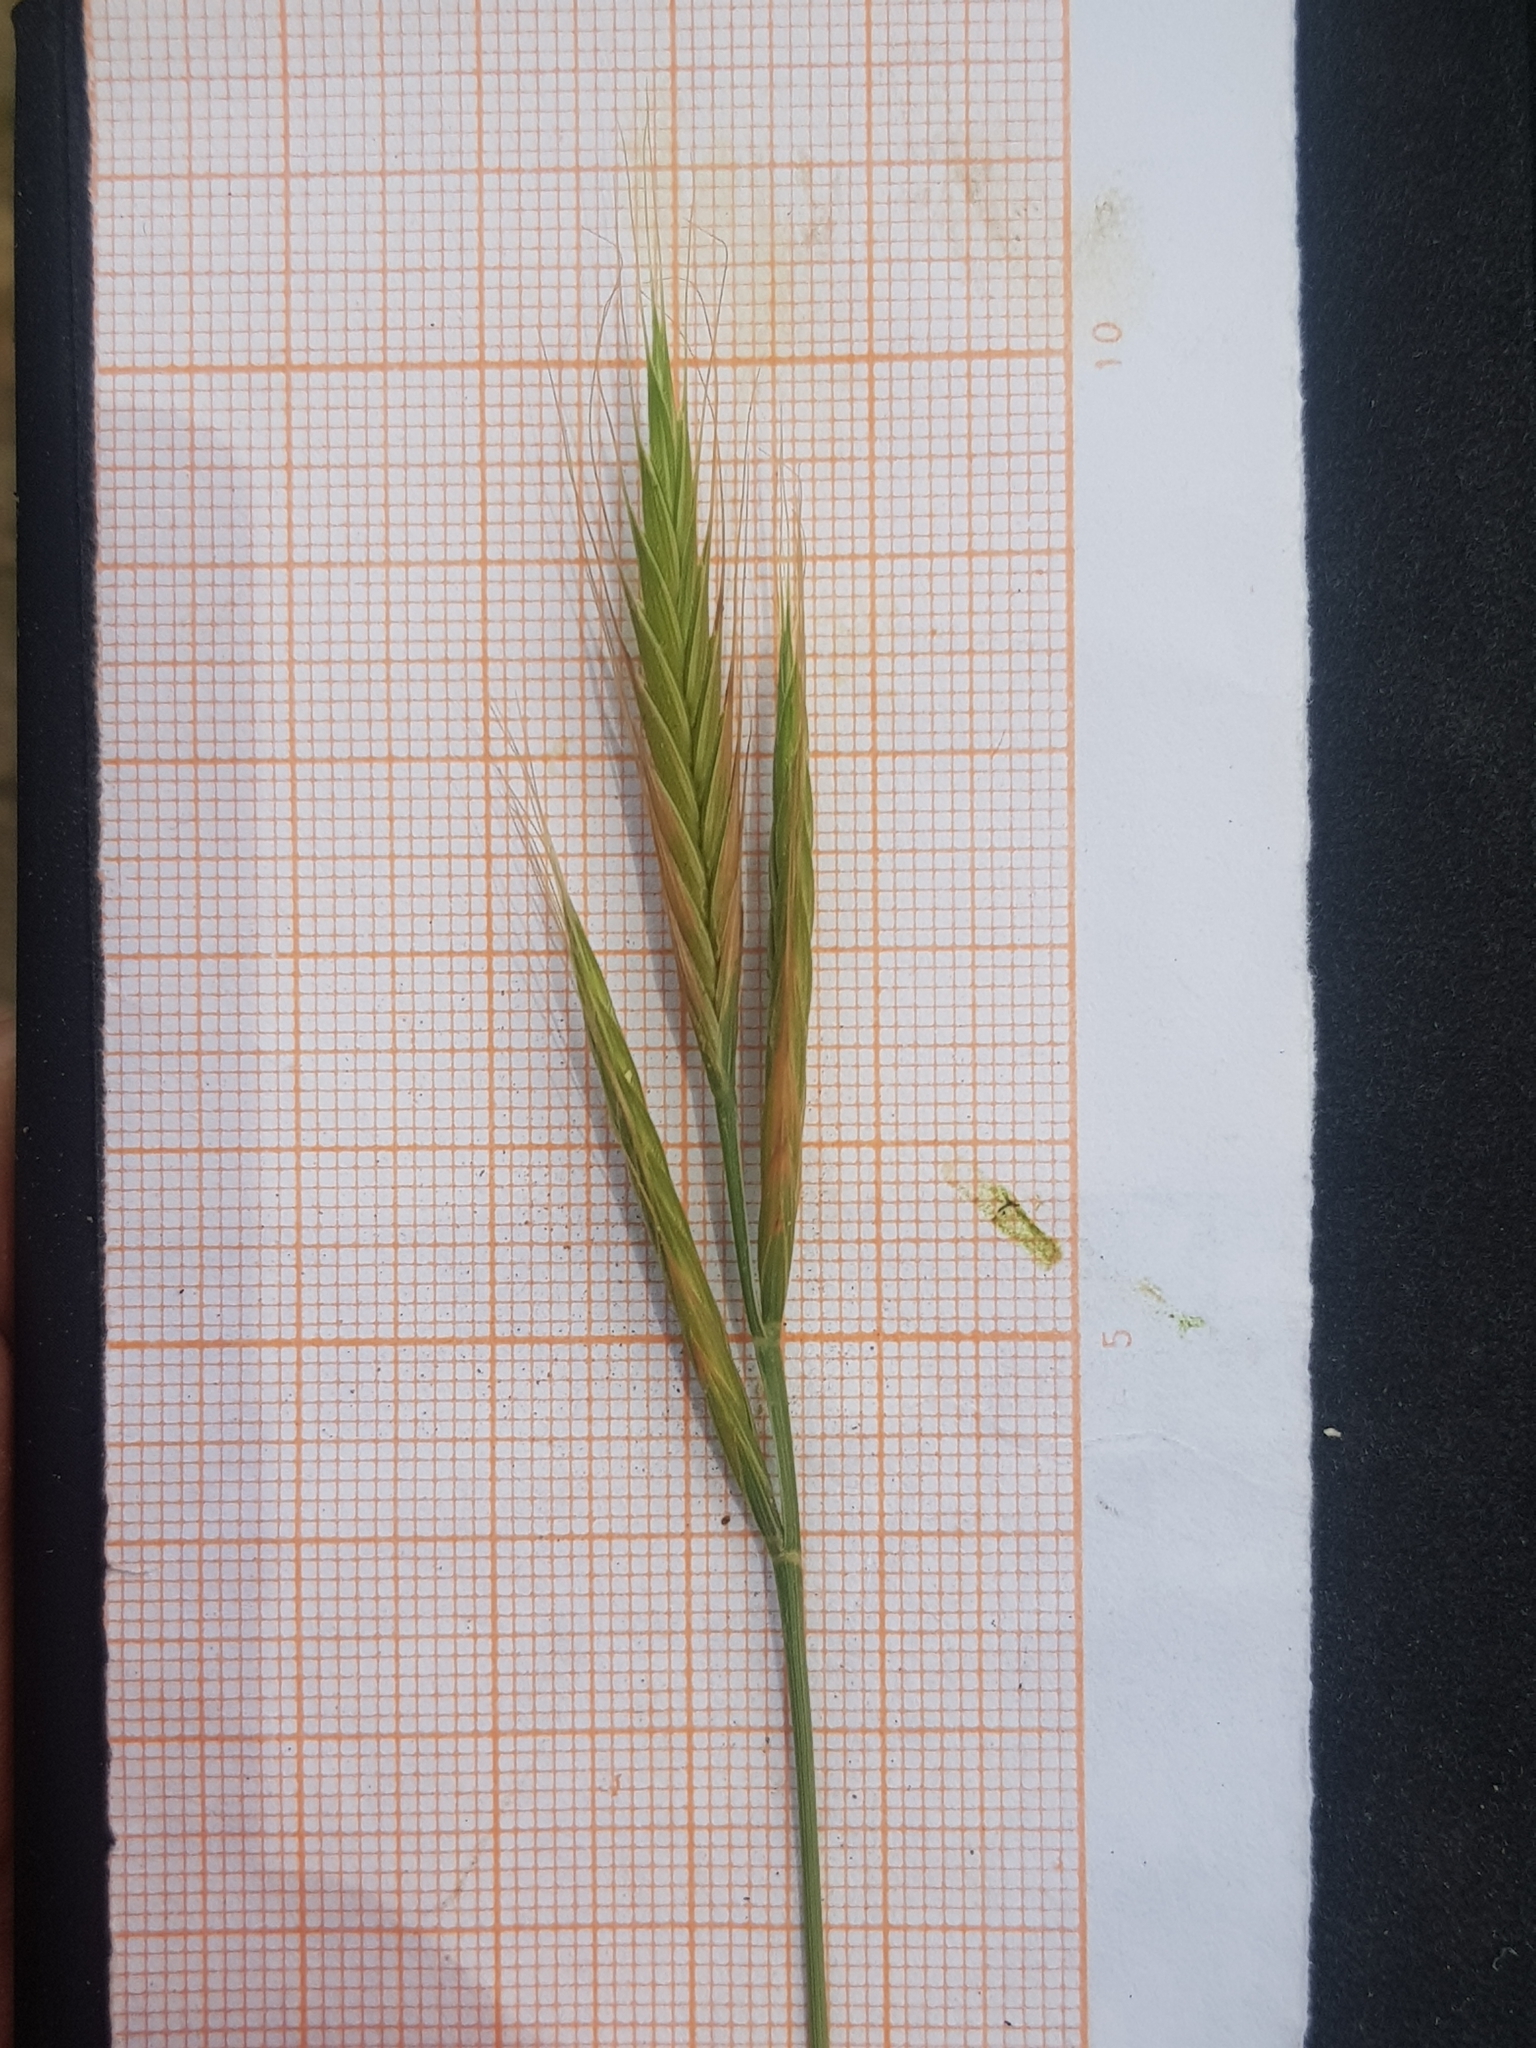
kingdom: Plantae
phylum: Tracheophyta
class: Liliopsida
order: Poales
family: Poaceae
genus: Brachypodium
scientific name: Brachypodium distachyon
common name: Stiff brome
